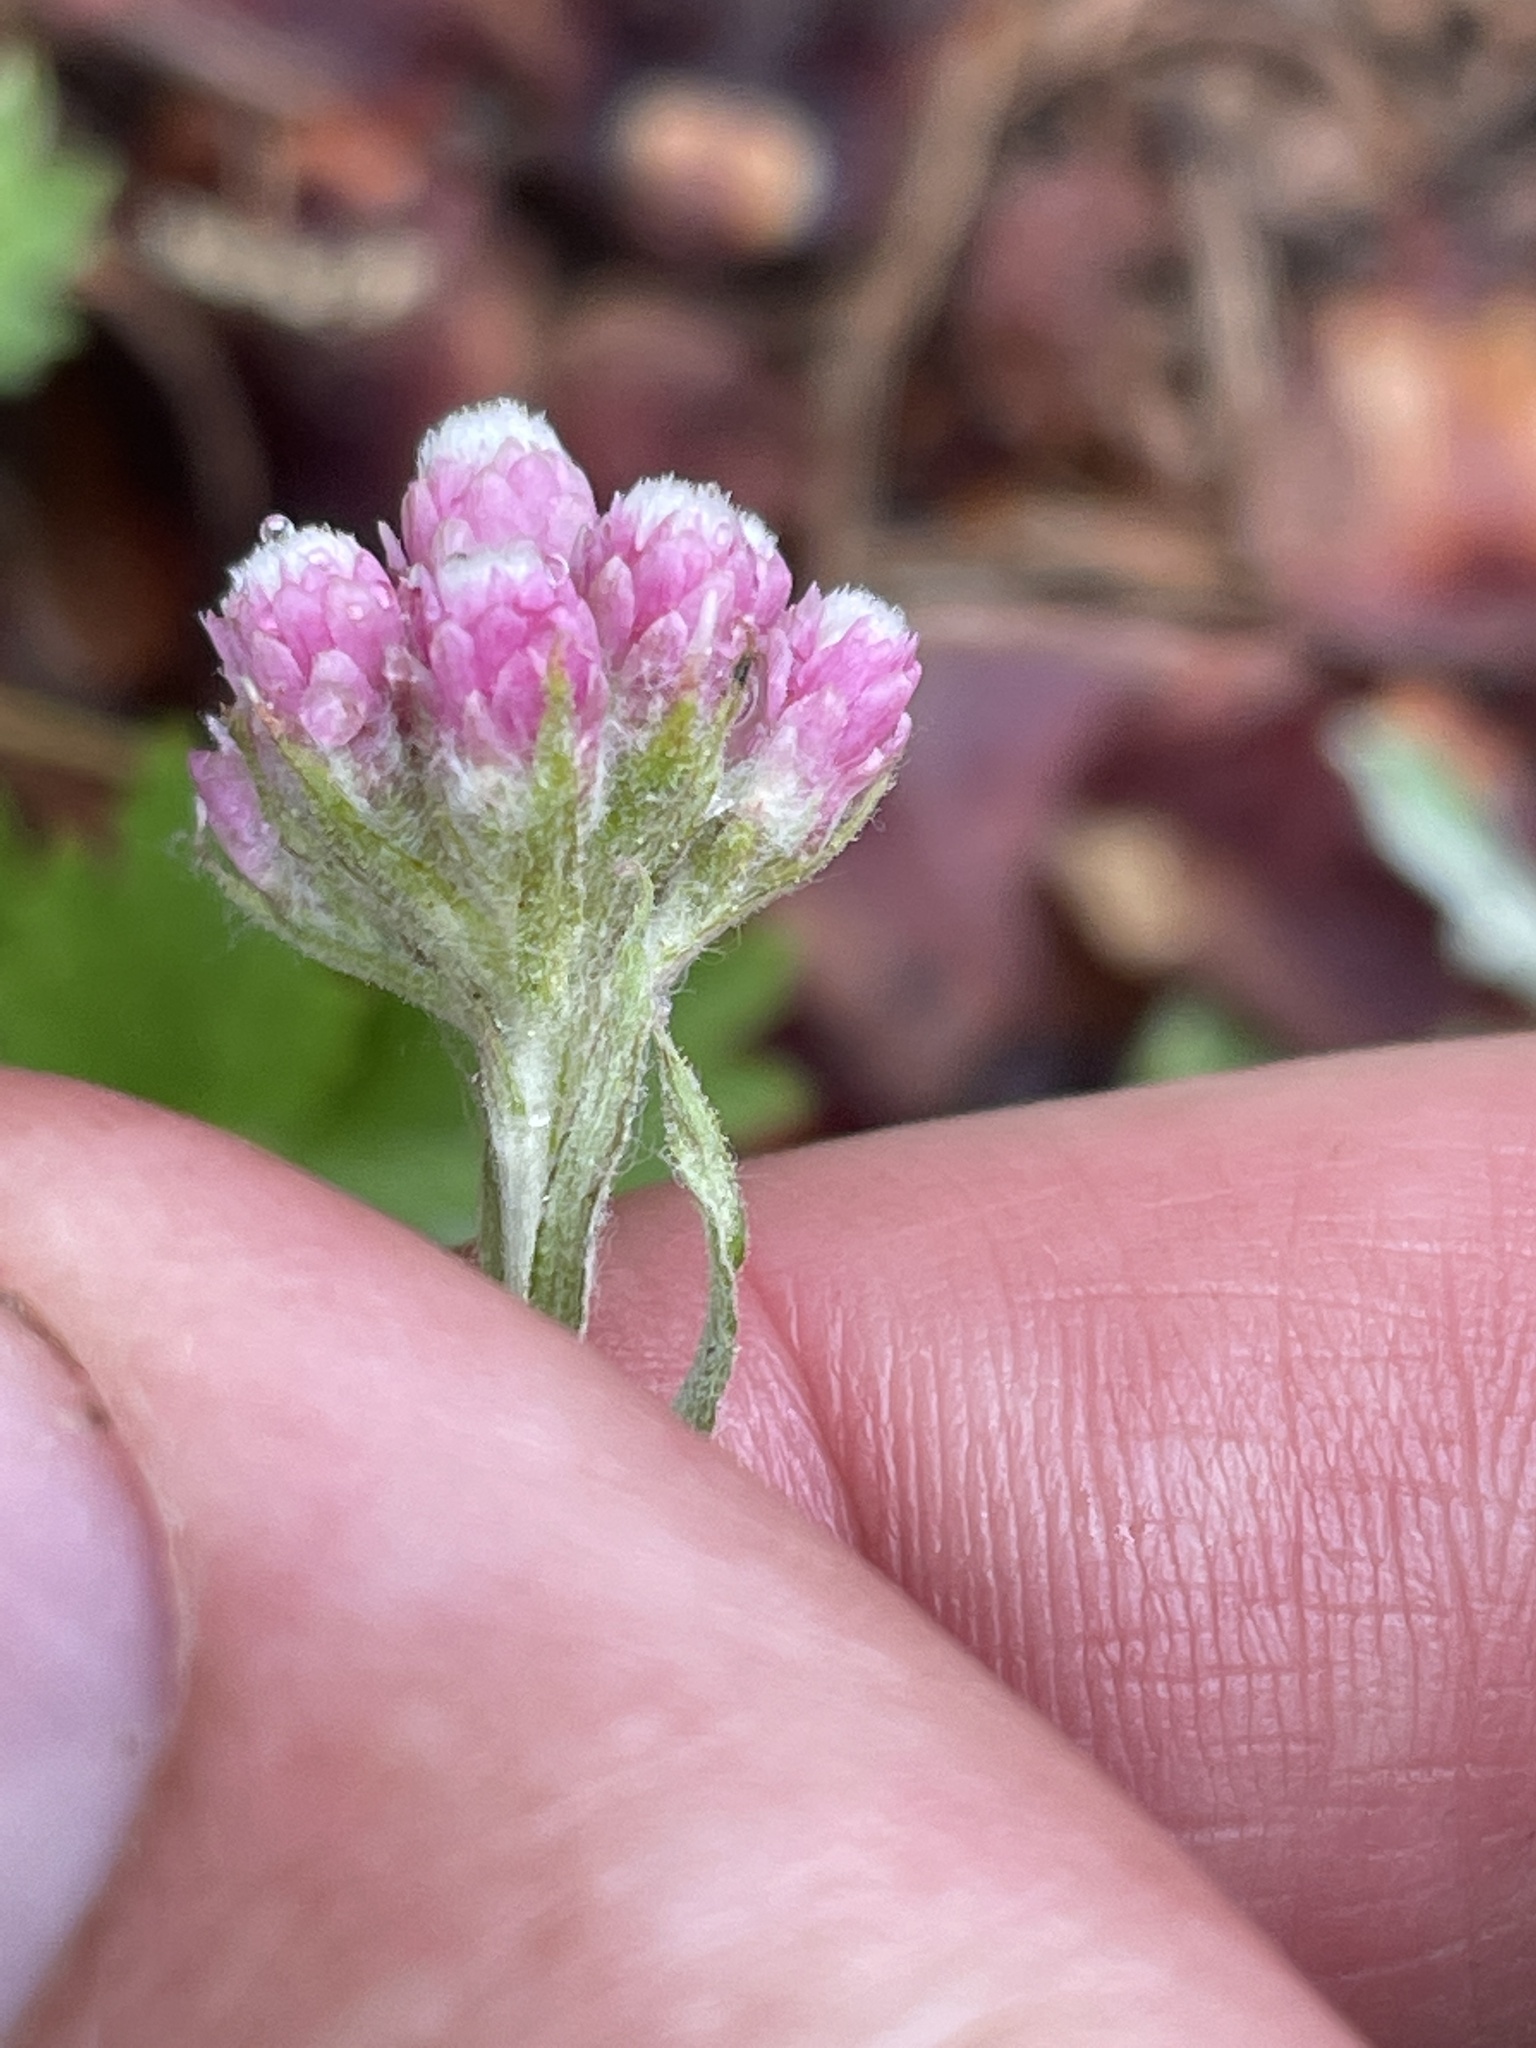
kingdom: Plantae
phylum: Tracheophyta
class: Magnoliopsida
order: Asterales
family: Asteraceae
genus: Antennaria
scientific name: Antennaria rosea
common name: Rosy pussytoes
